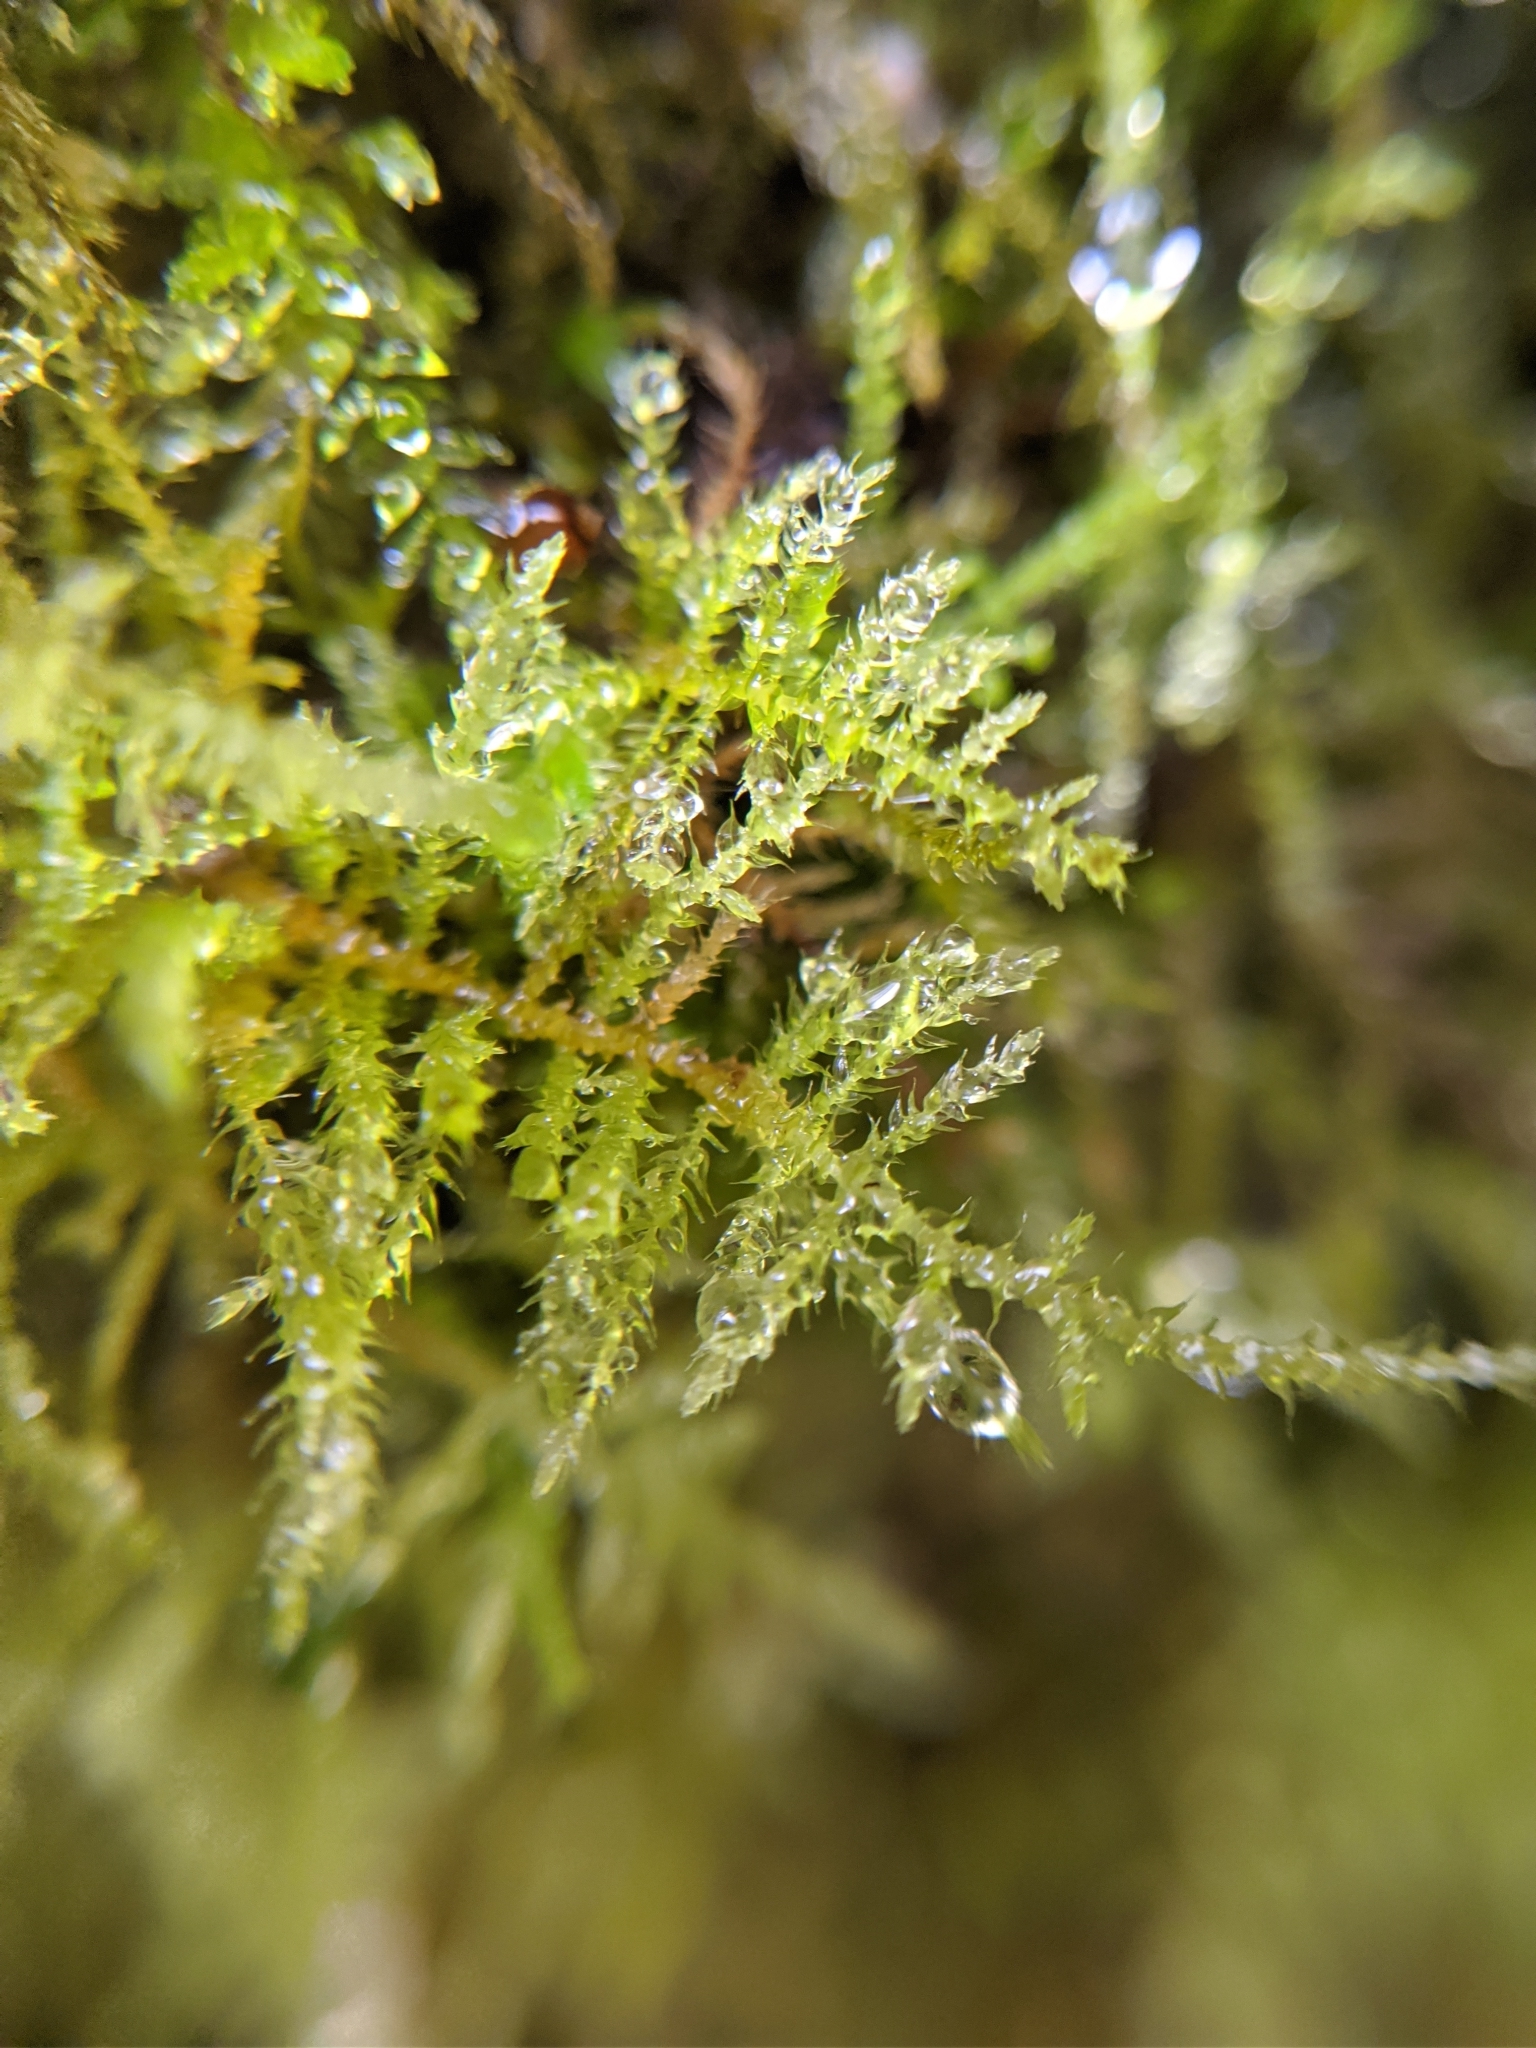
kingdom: Plantae
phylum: Bryophyta
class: Bryopsida
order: Hypnales
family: Brachytheciaceae
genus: Kindbergia
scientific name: Kindbergia praelonga
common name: Slender beaked moss
